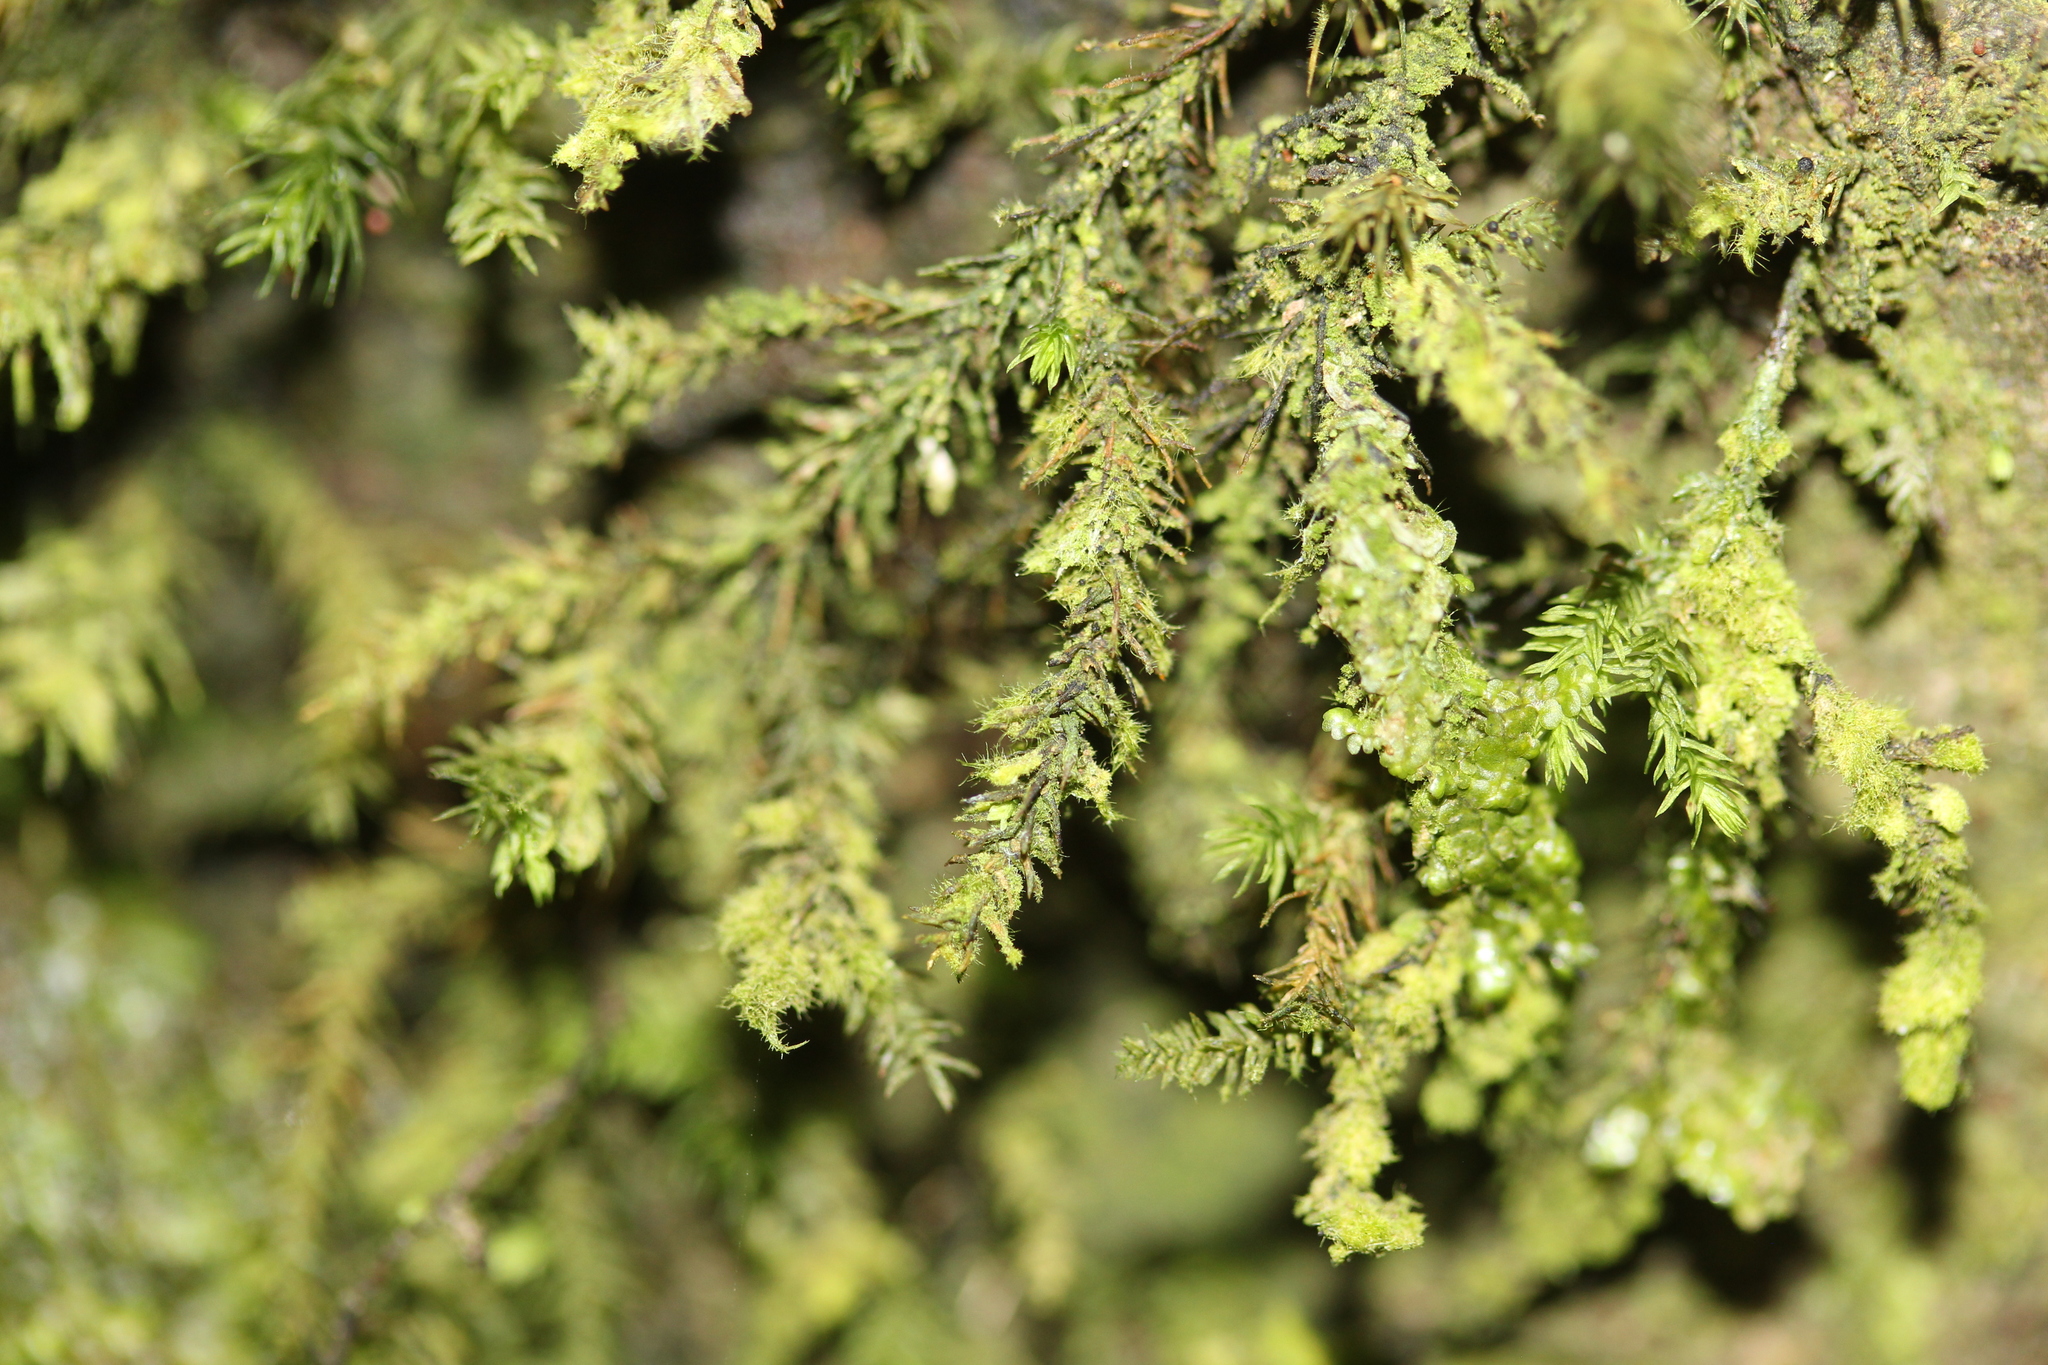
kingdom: Plantae
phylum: Bryophyta
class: Bryopsida
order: Hypnales
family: Neckeraceae
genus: Echinodiopsis
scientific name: Echinodiopsis hispida
